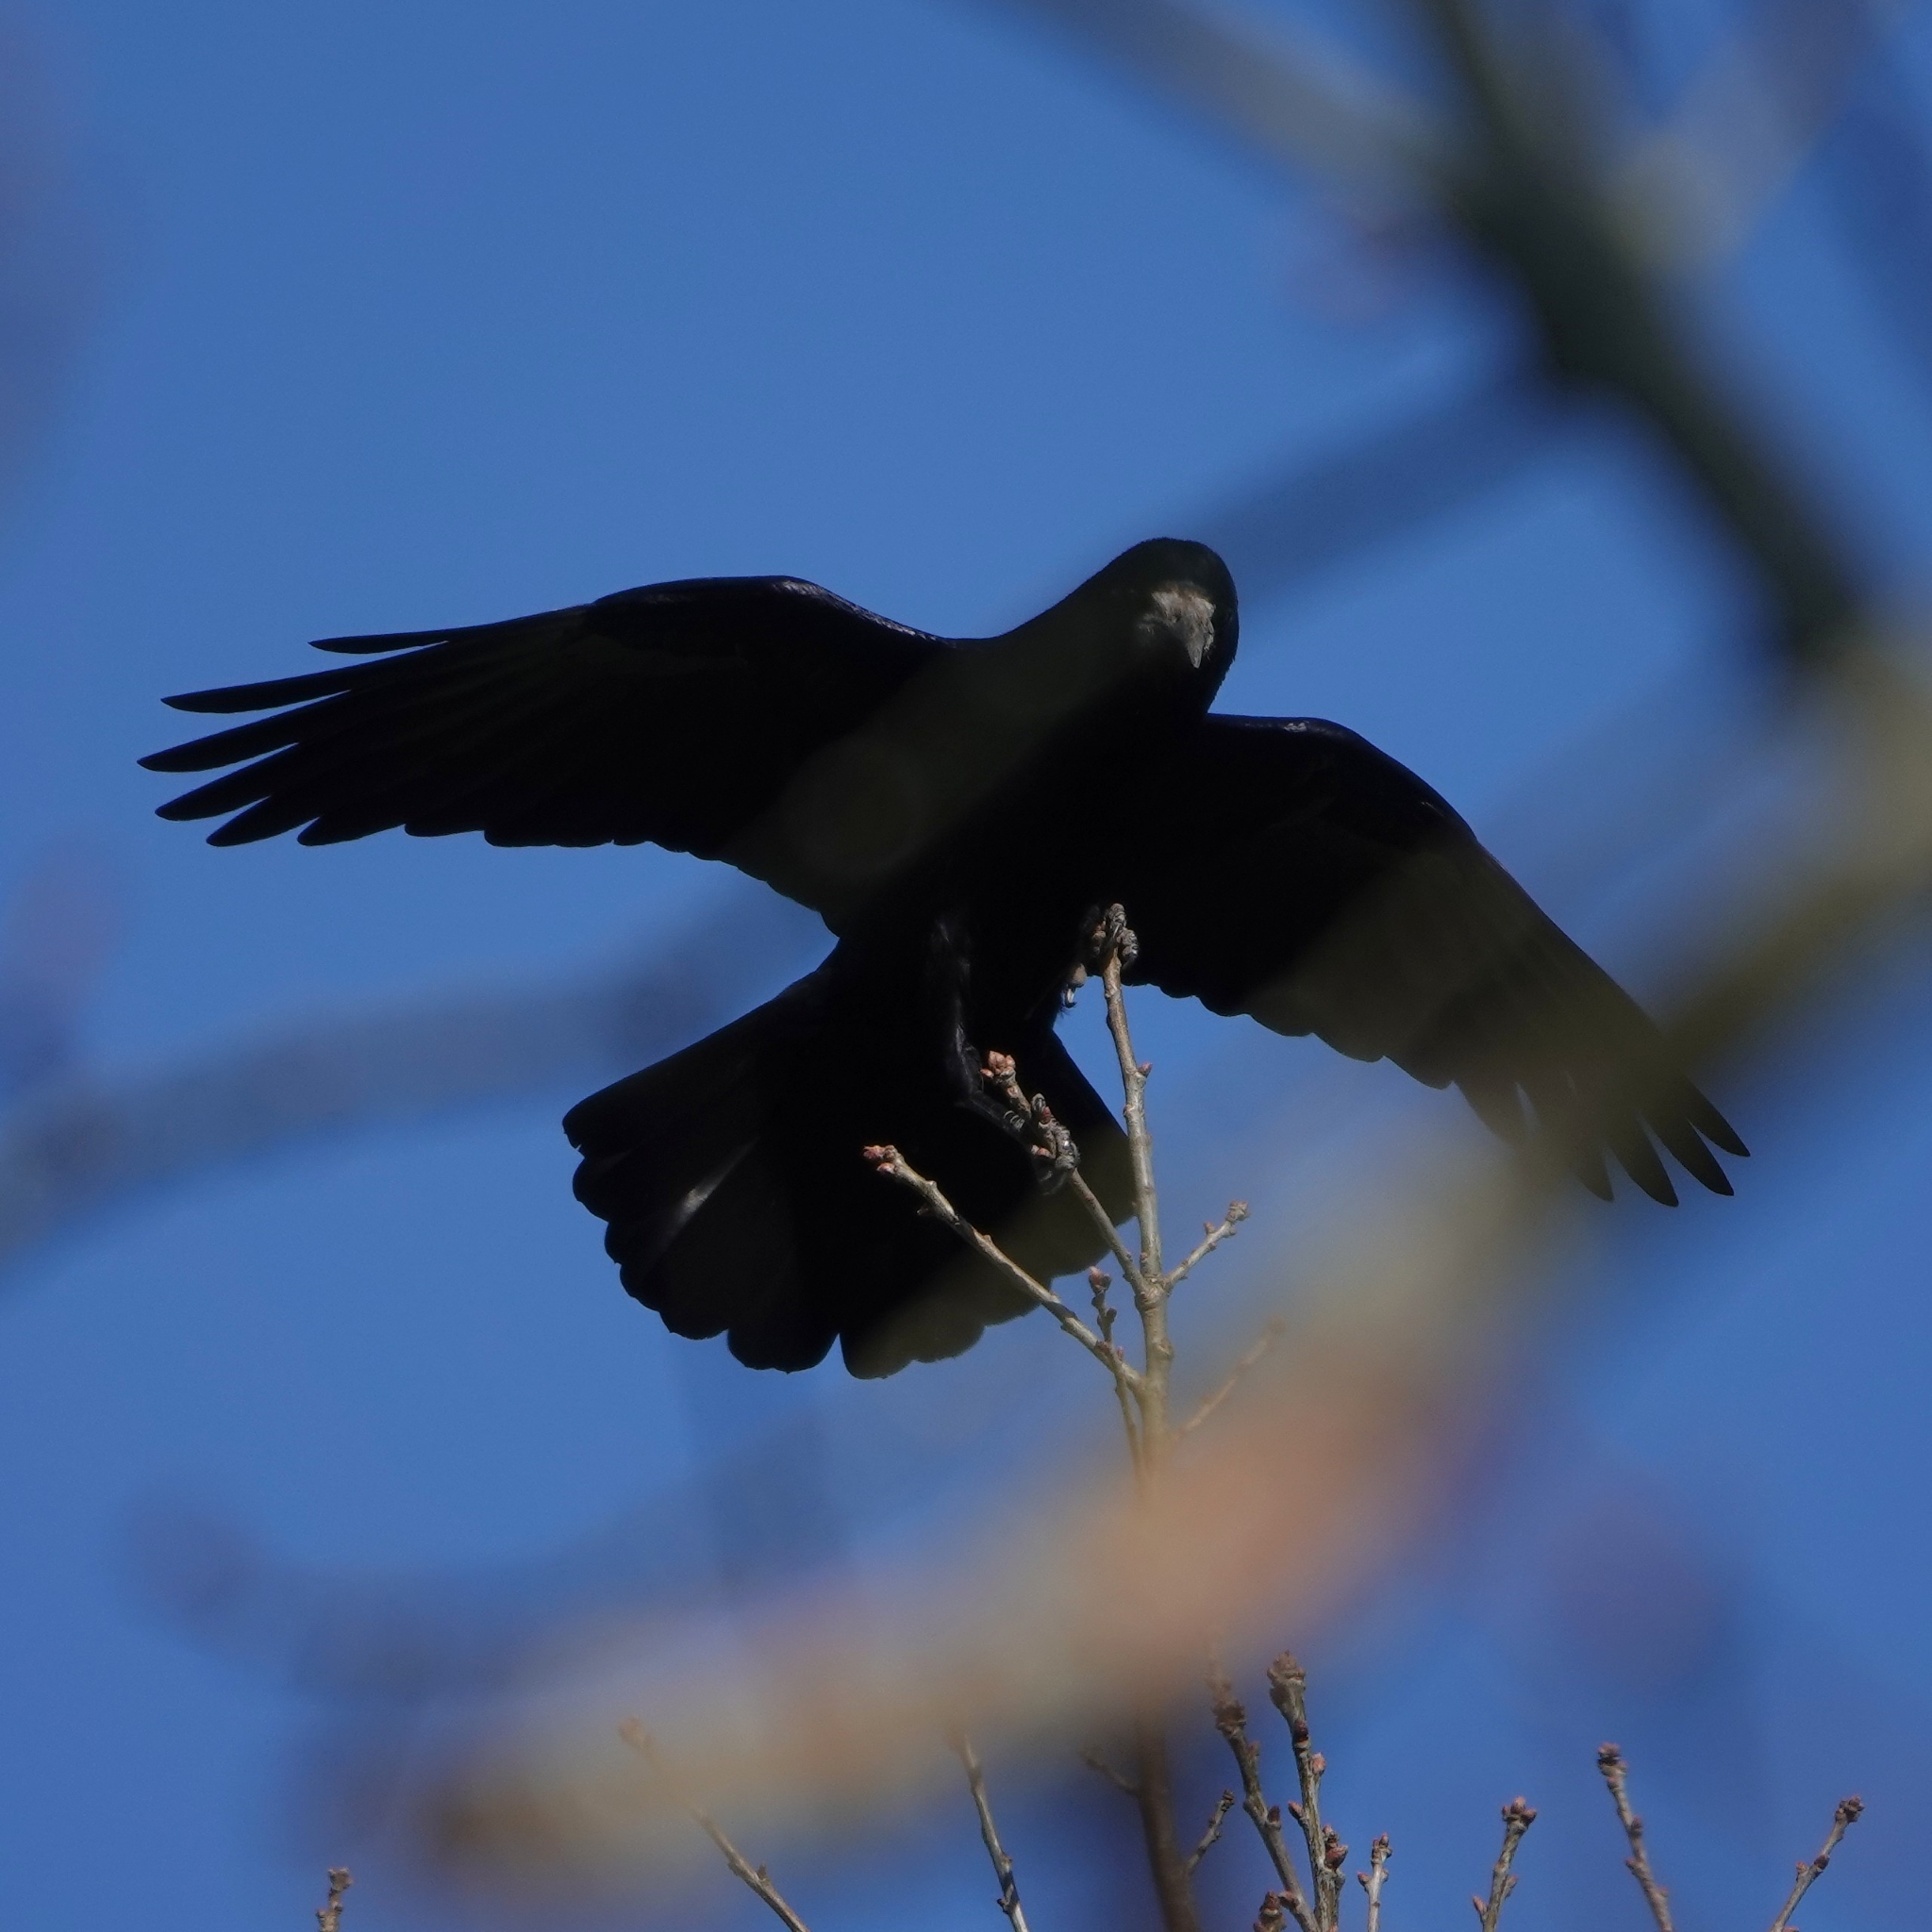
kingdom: Animalia
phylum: Chordata
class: Aves
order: Passeriformes
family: Corvidae
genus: Corvus
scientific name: Corvus frugilegus
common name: Rook
